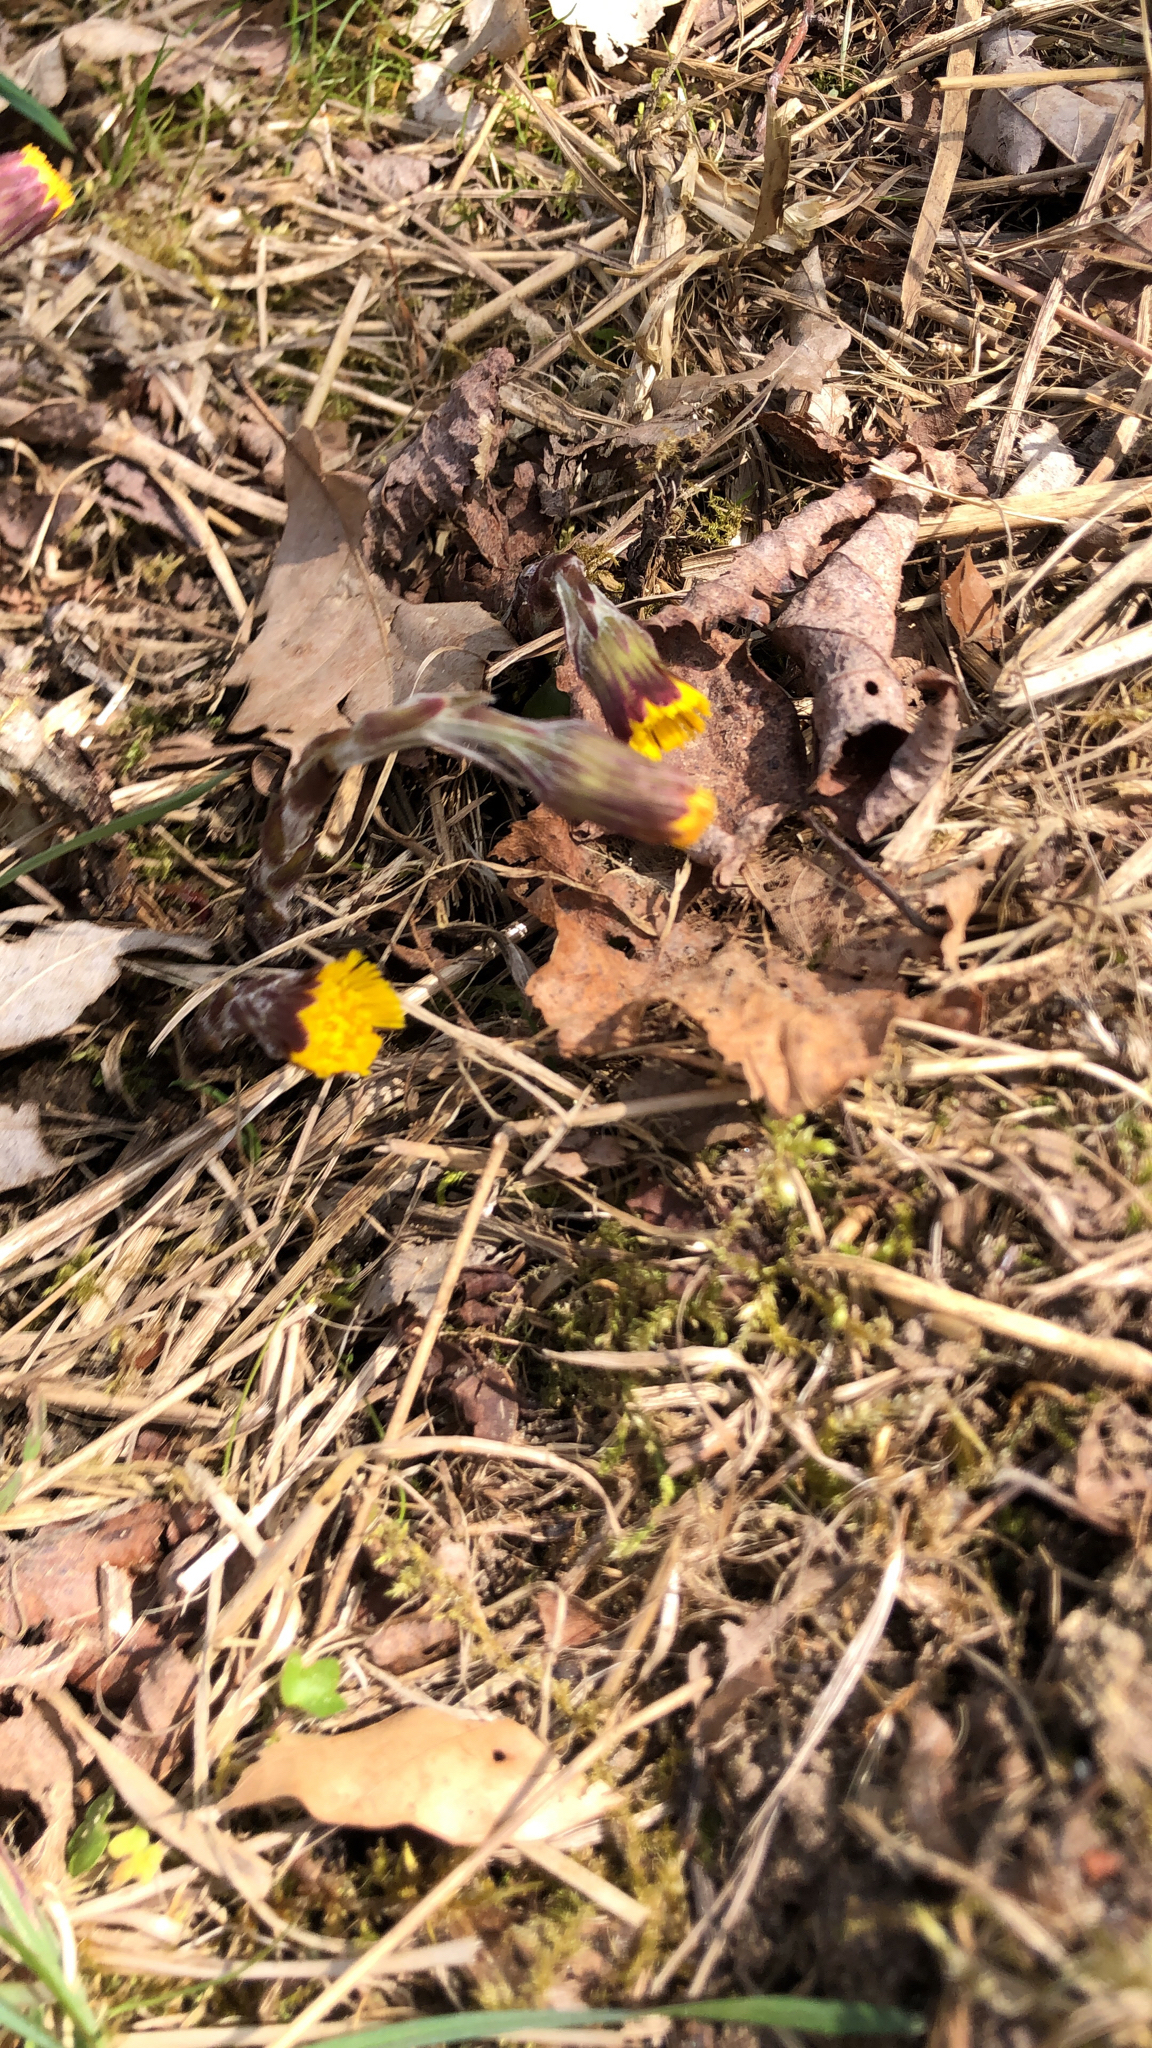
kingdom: Plantae
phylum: Tracheophyta
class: Magnoliopsida
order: Asterales
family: Asteraceae
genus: Tussilago
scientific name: Tussilago farfara
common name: Coltsfoot
